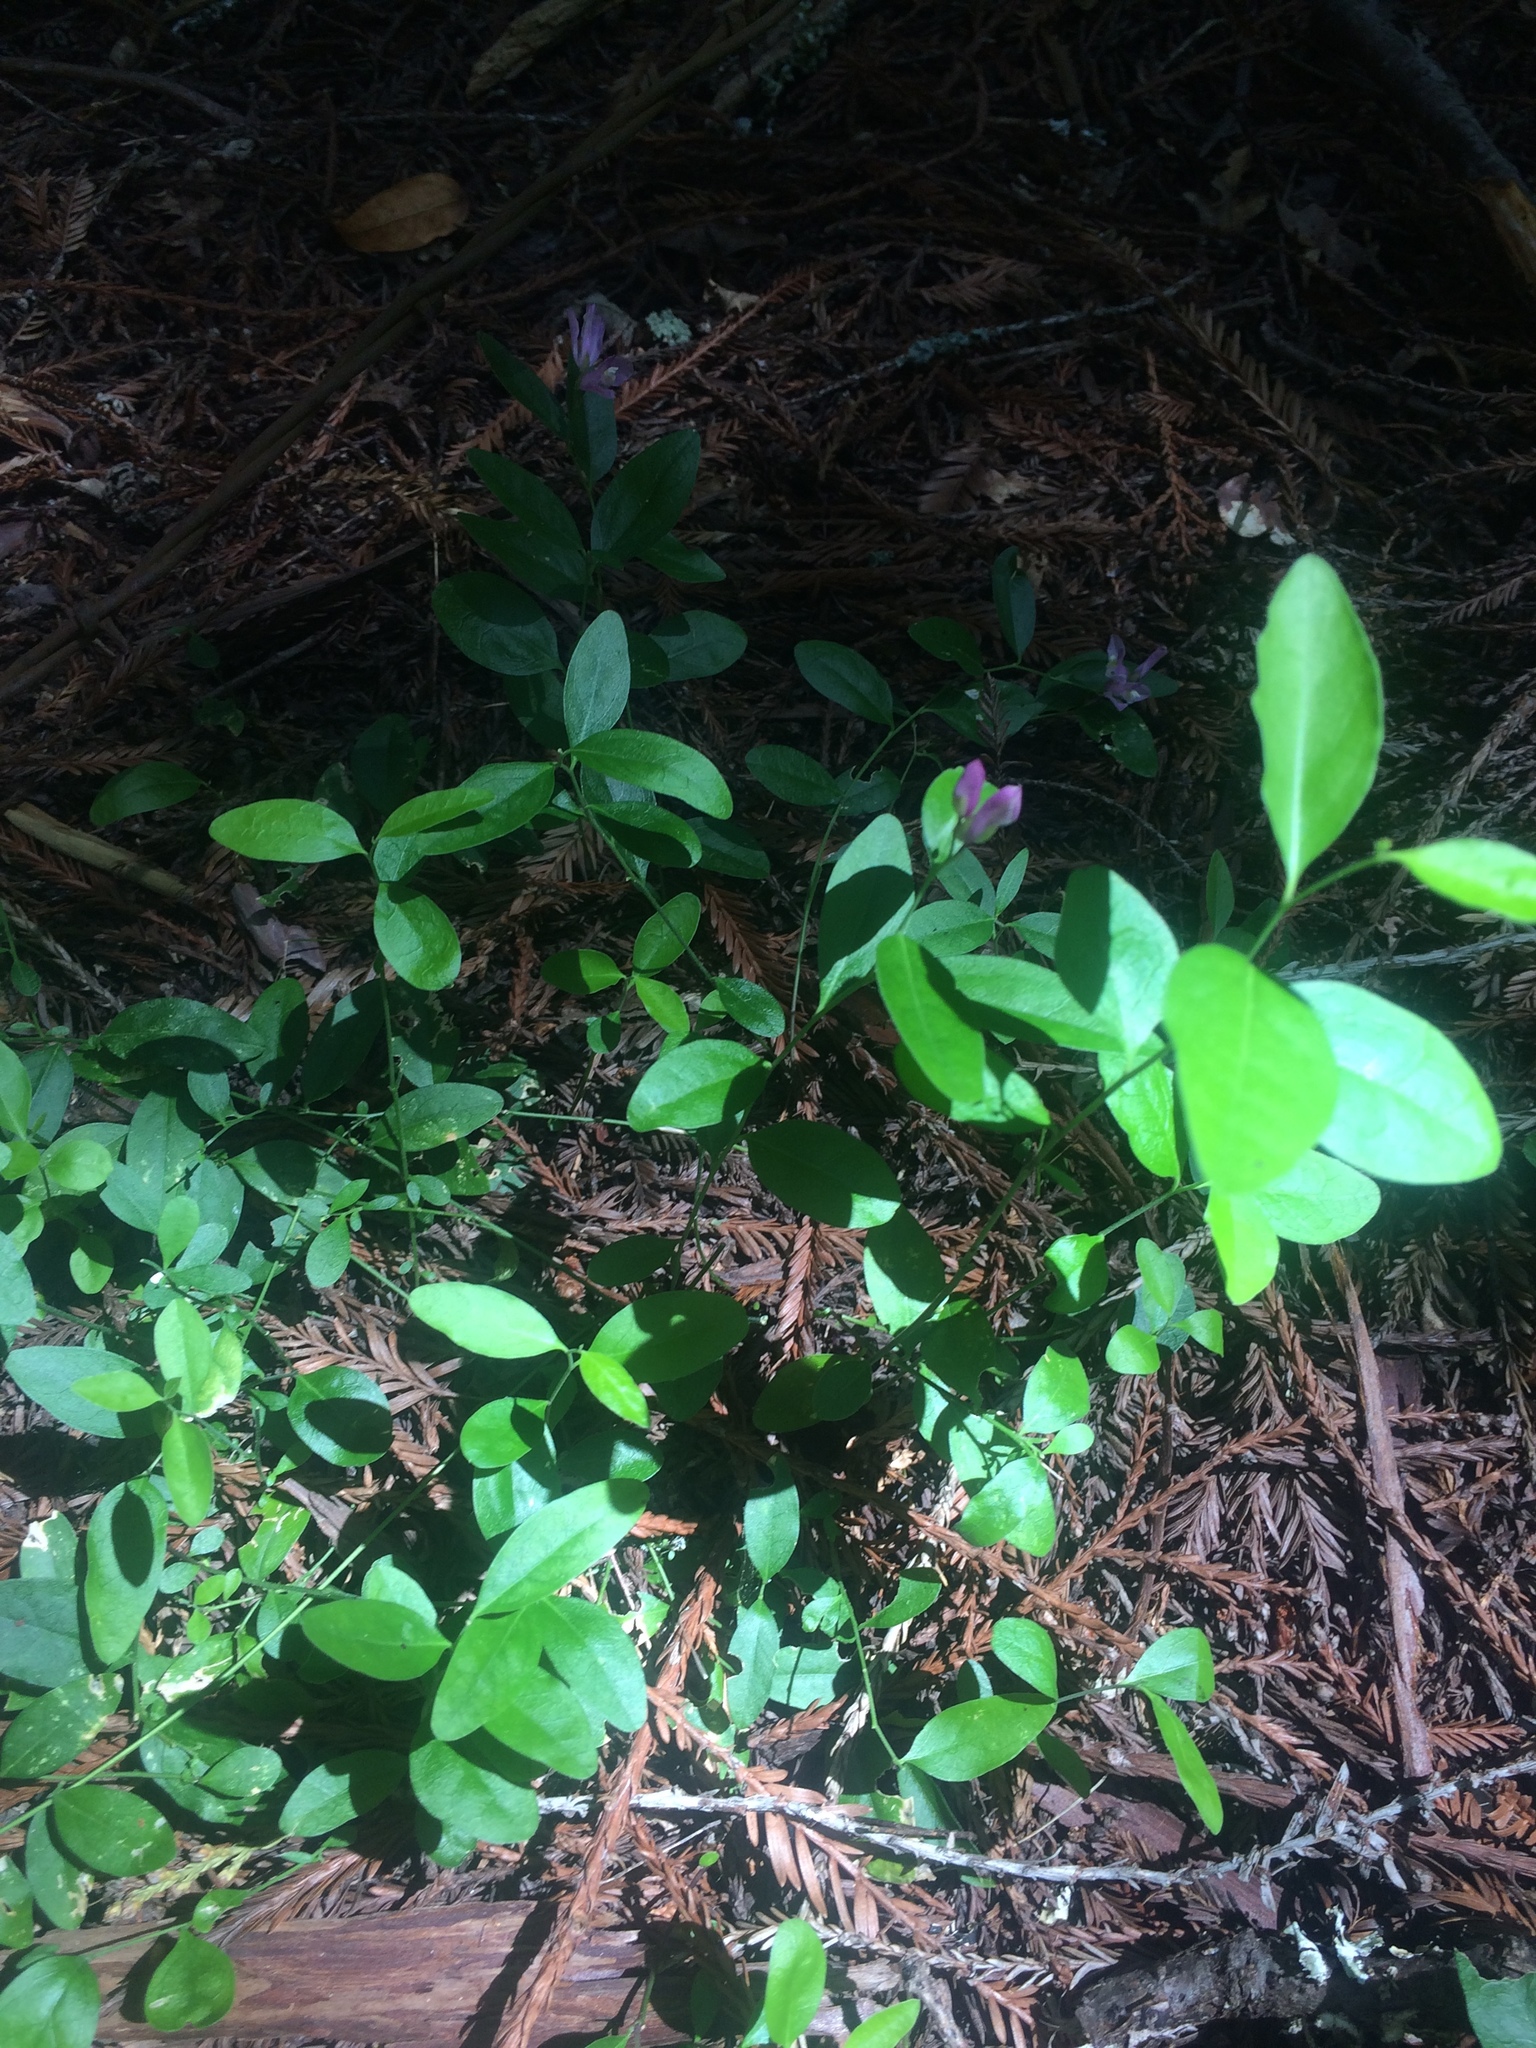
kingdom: Plantae
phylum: Tracheophyta
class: Magnoliopsida
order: Fabales
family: Polygalaceae
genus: Rhinotropis
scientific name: Rhinotropis californica
